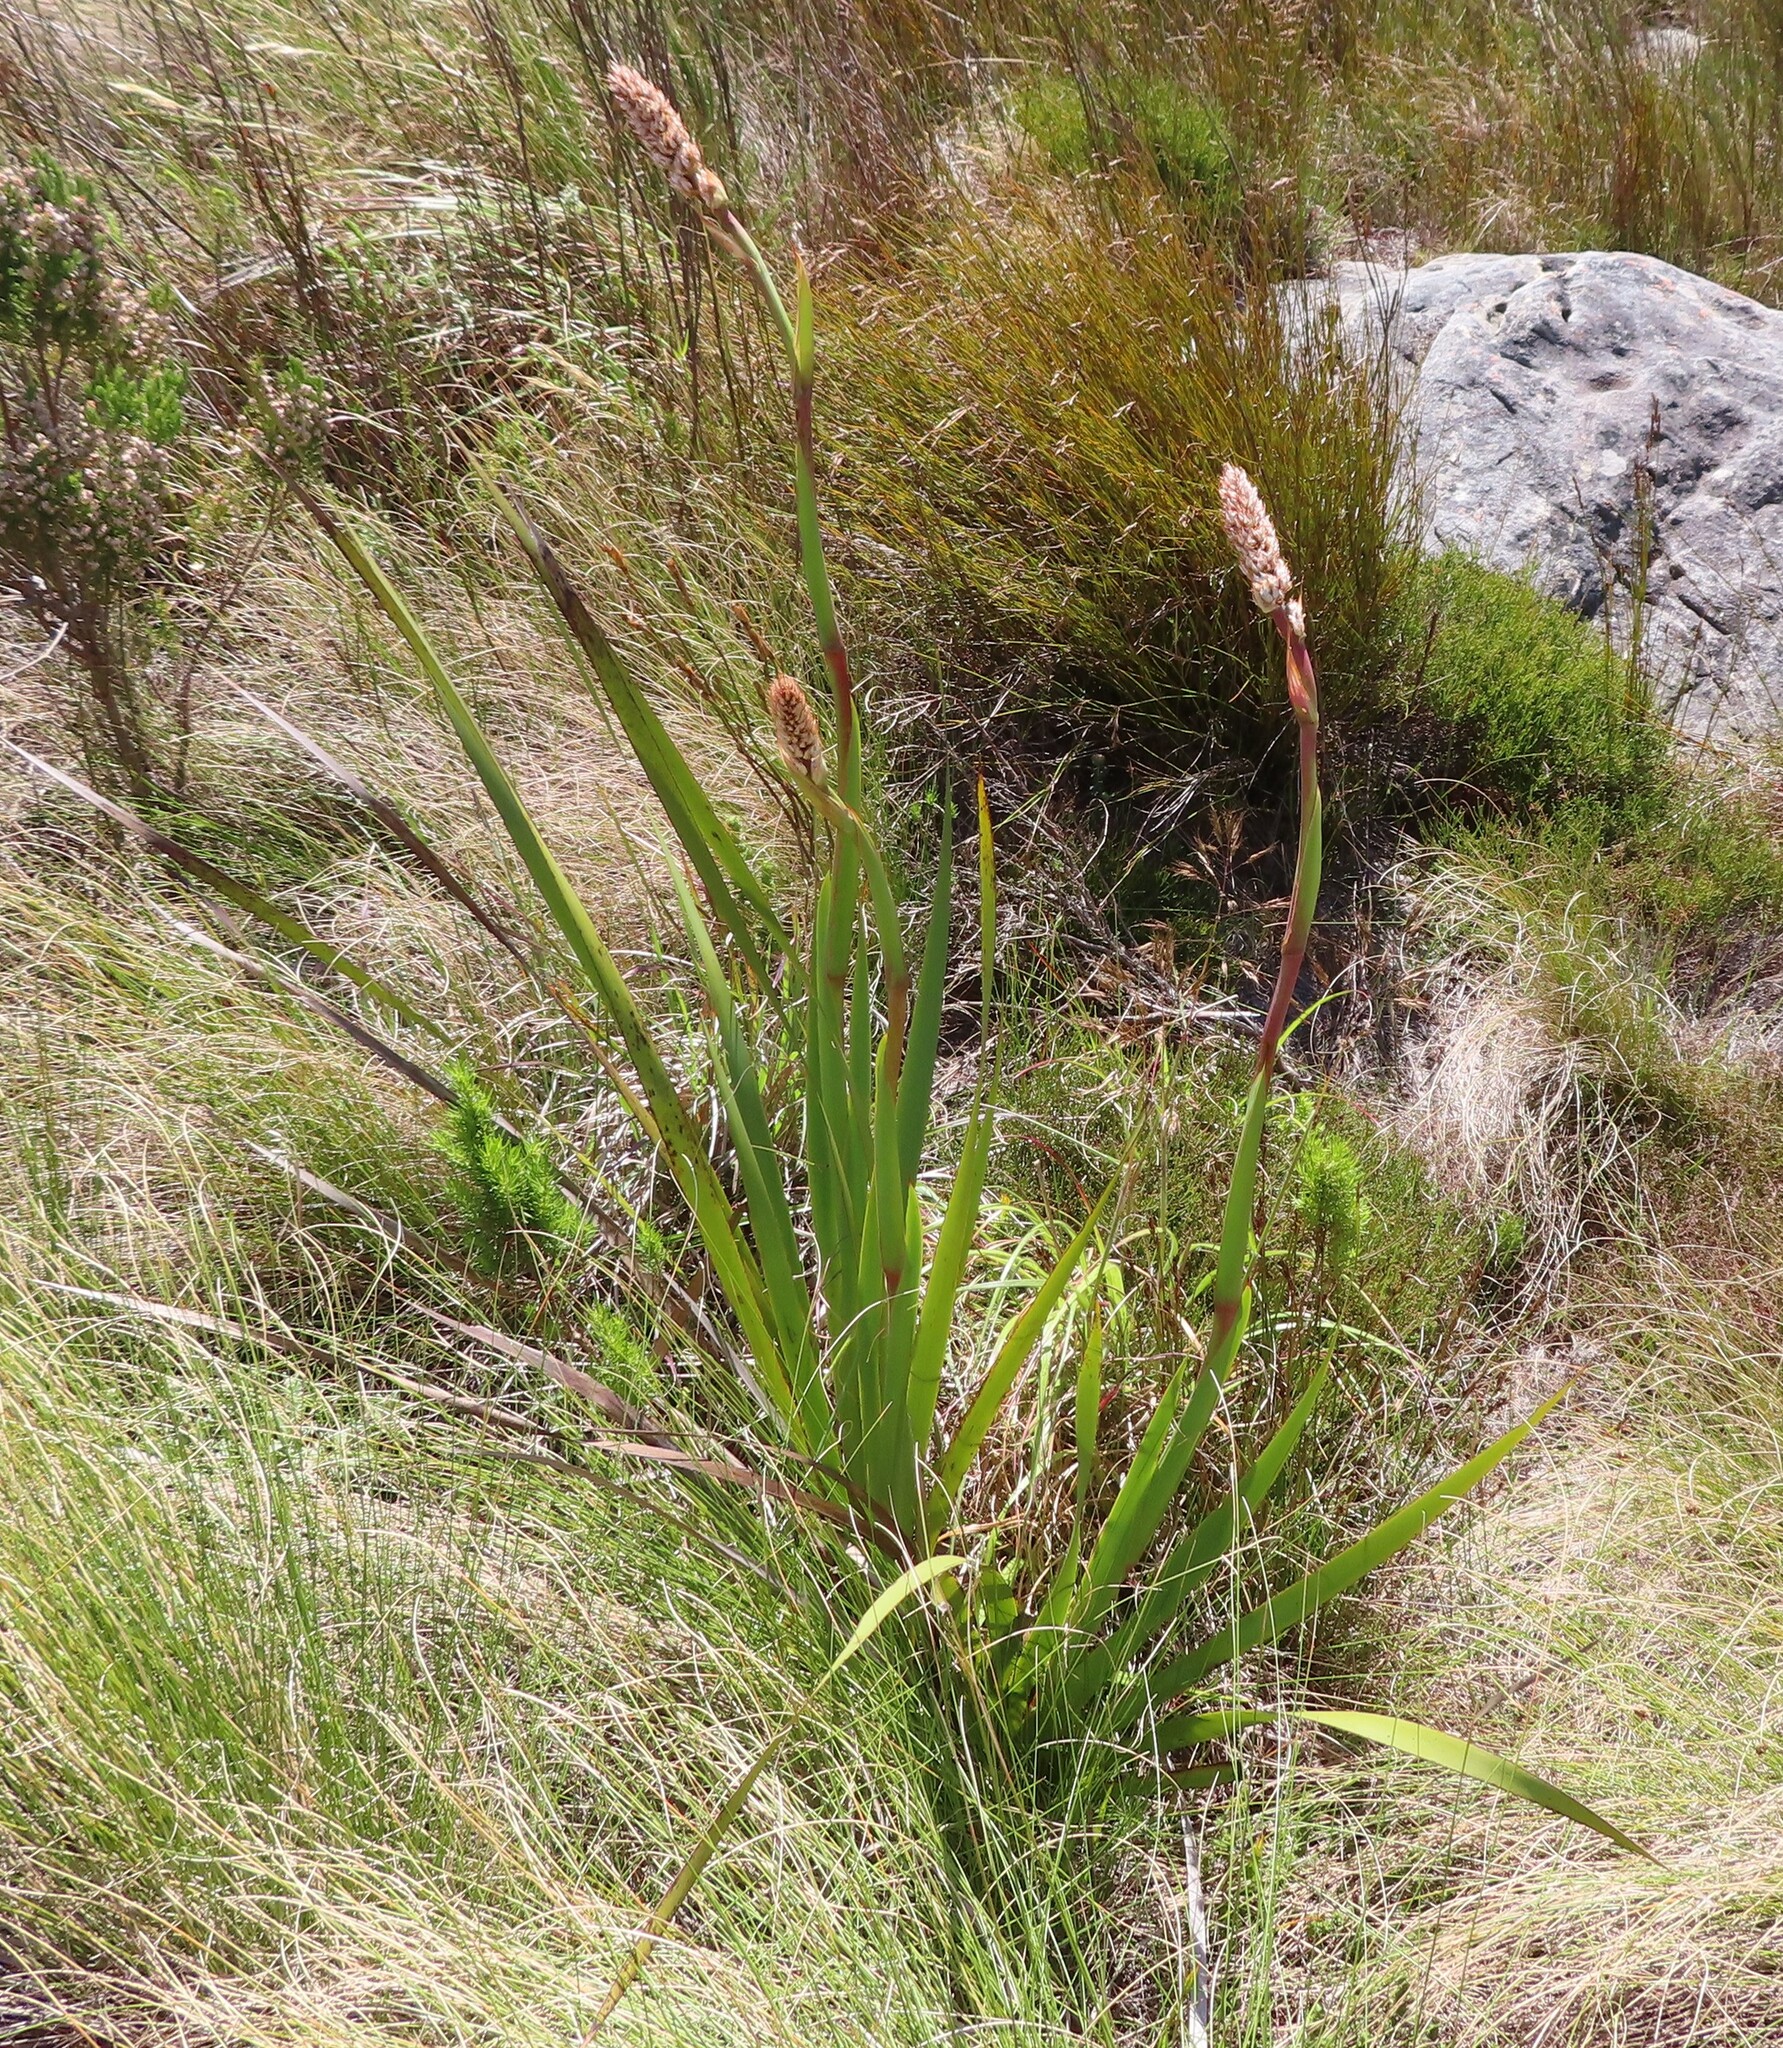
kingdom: Plantae
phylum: Tracheophyta
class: Liliopsida
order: Asparagales
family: Iridaceae
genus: Aristea
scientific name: Aristea capitata
